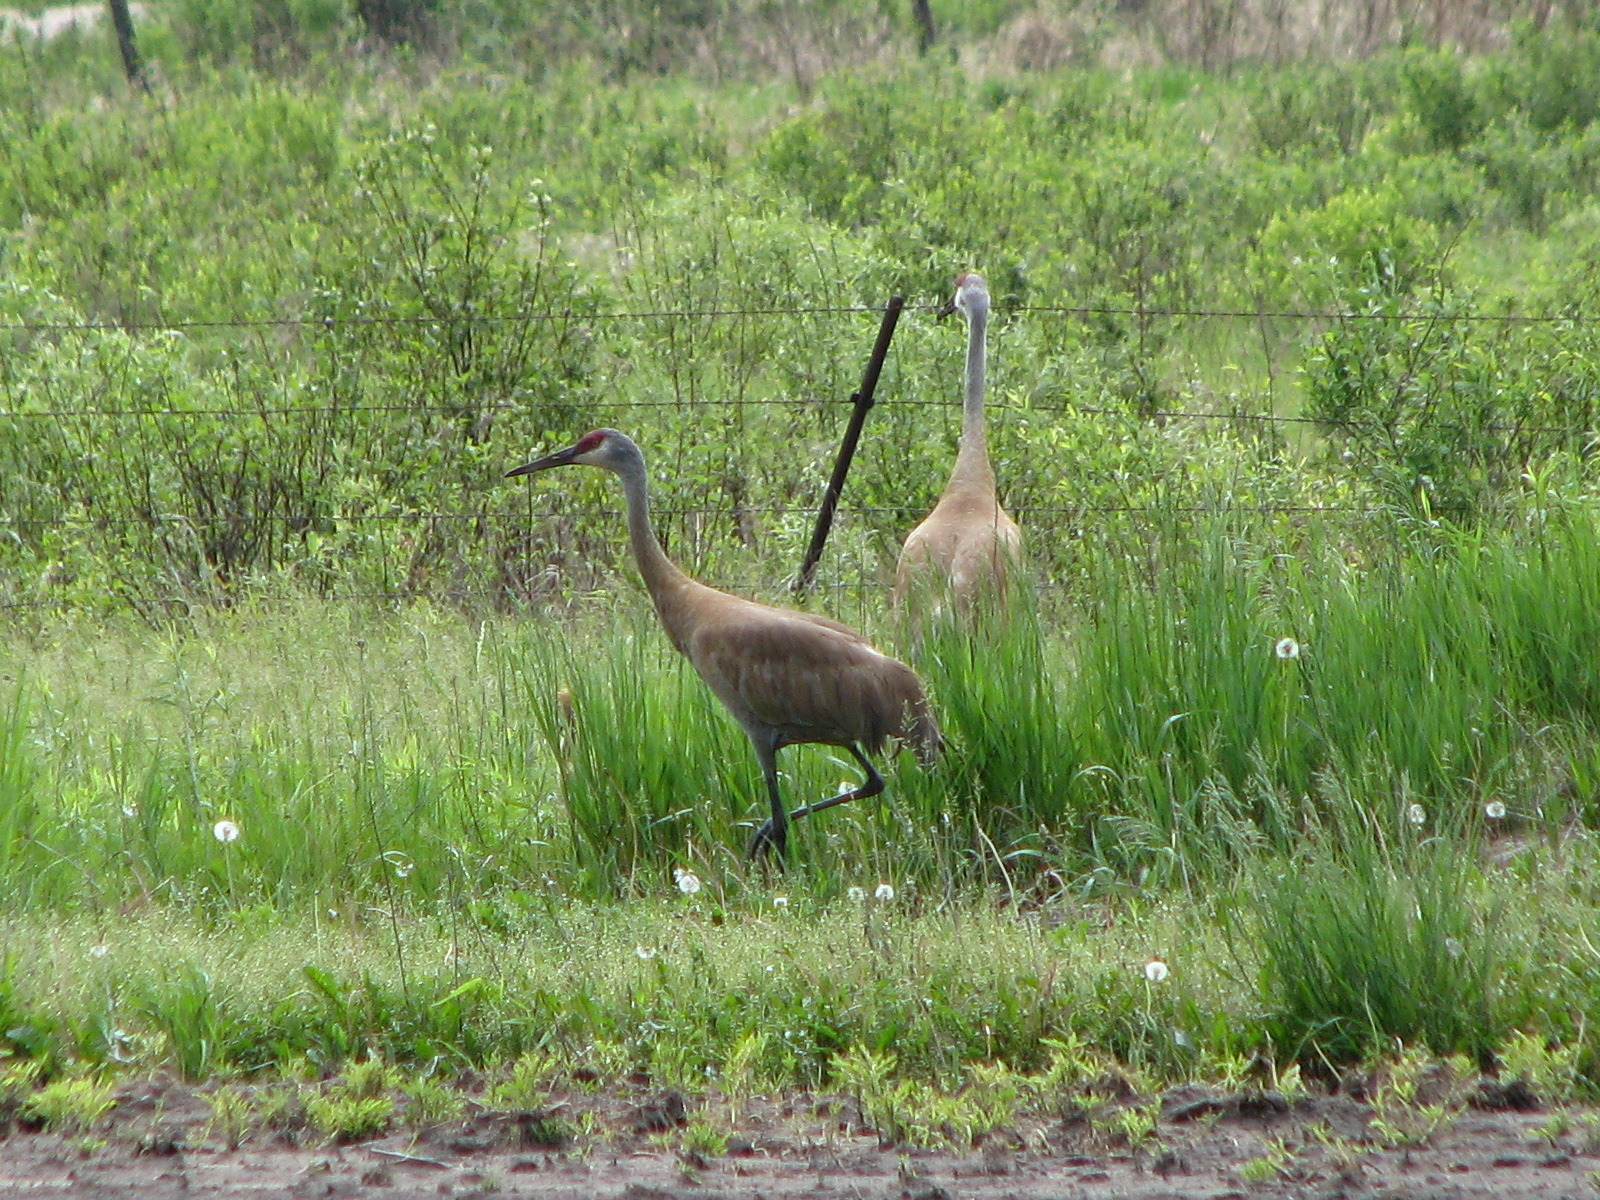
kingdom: Animalia
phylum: Chordata
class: Aves
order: Gruiformes
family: Gruidae
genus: Grus
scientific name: Grus canadensis
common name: Sandhill crane
